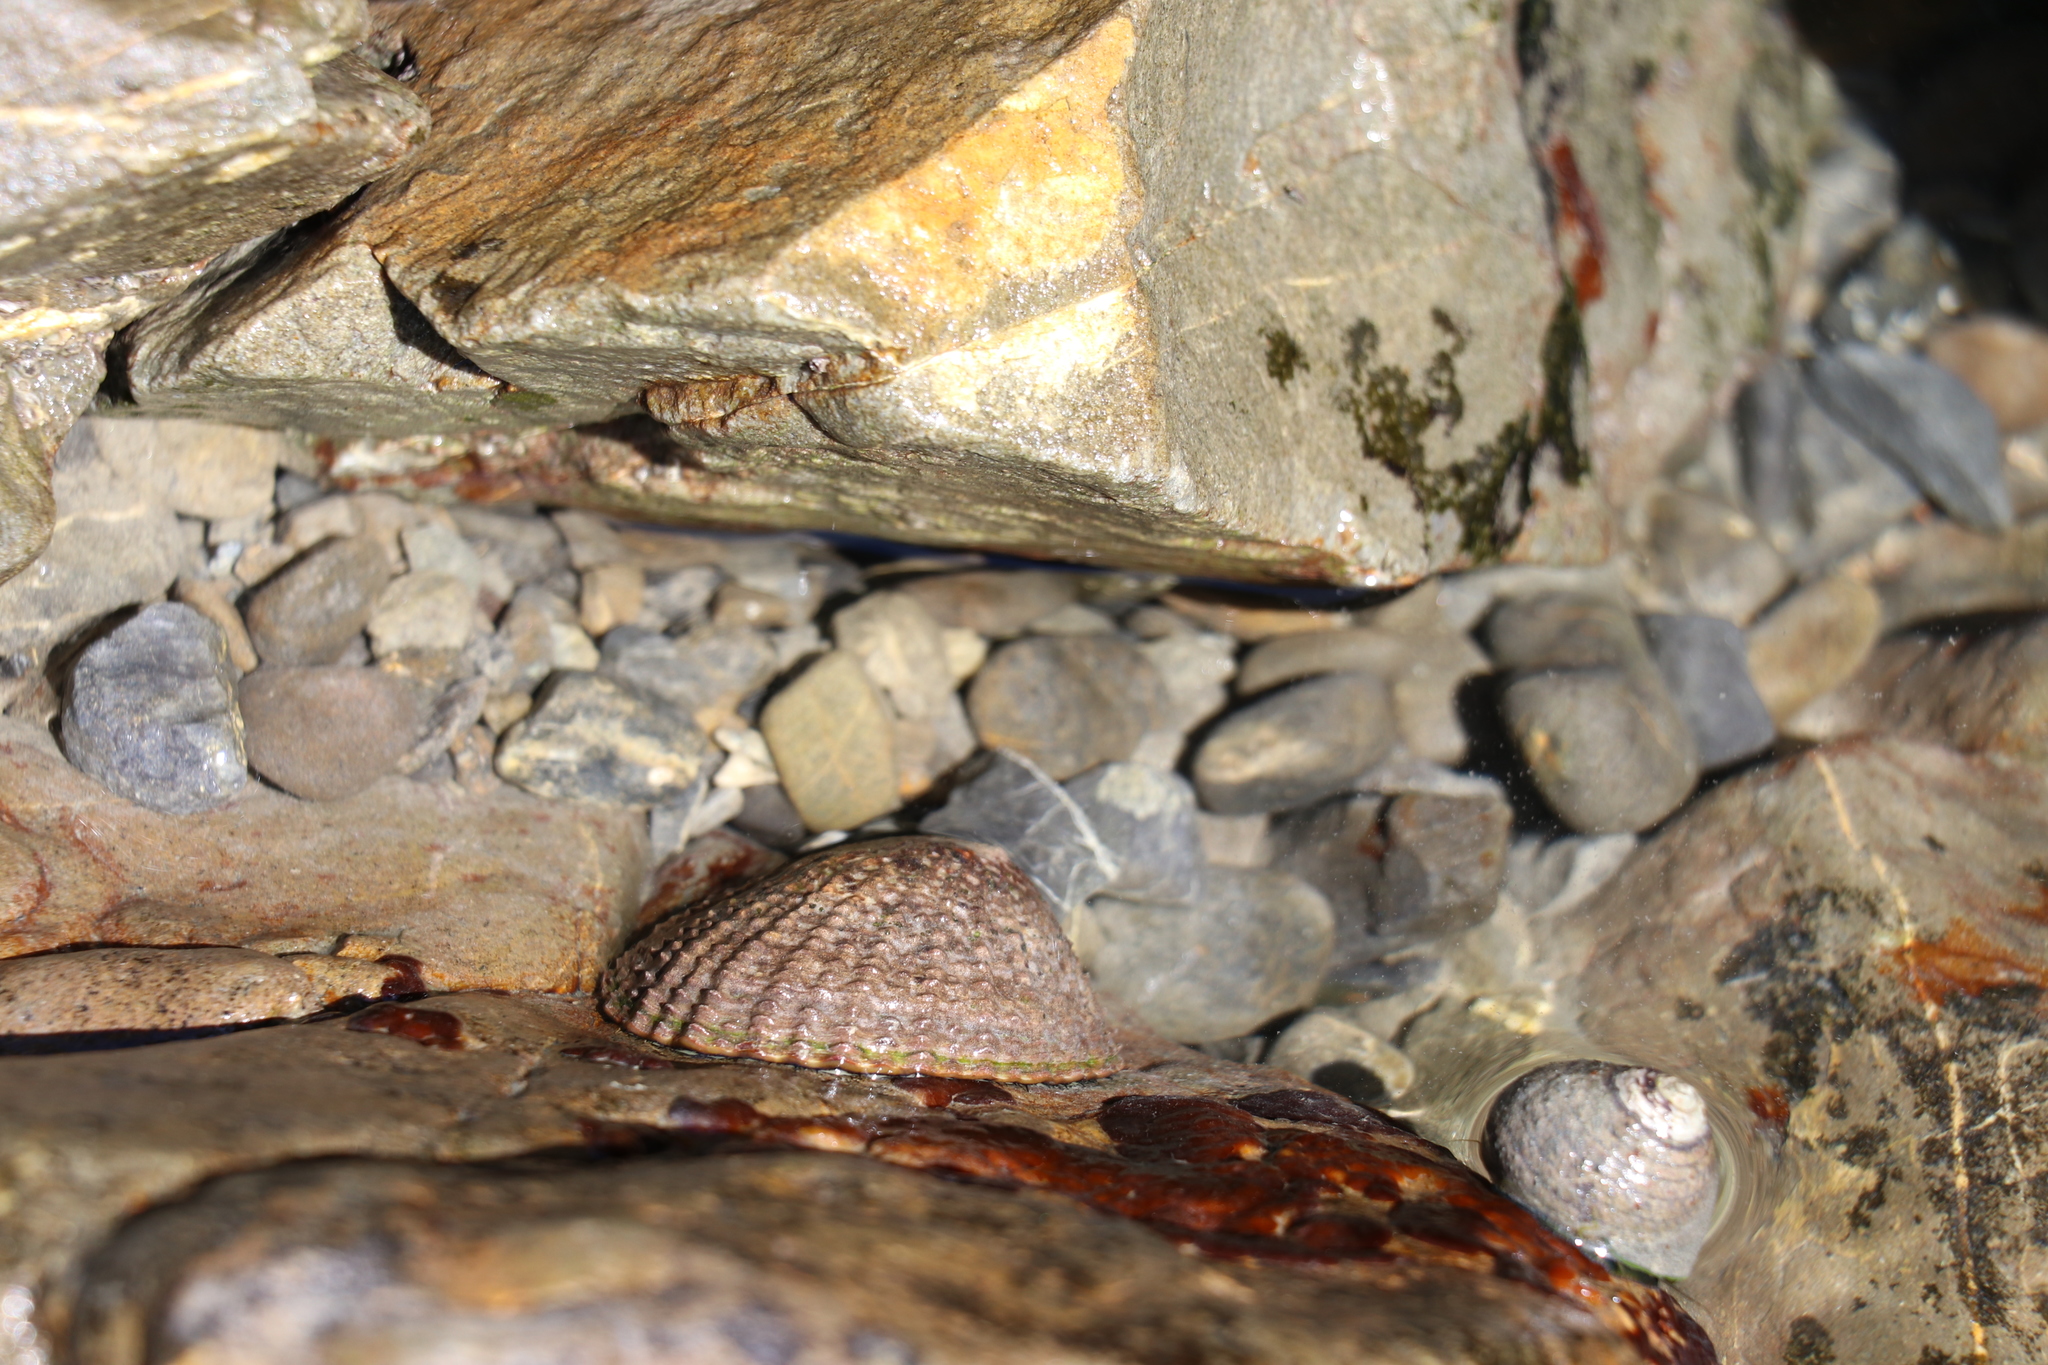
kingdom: Animalia
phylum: Mollusca
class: Gastropoda
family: Nacellidae
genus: Cellana
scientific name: Cellana denticulata
